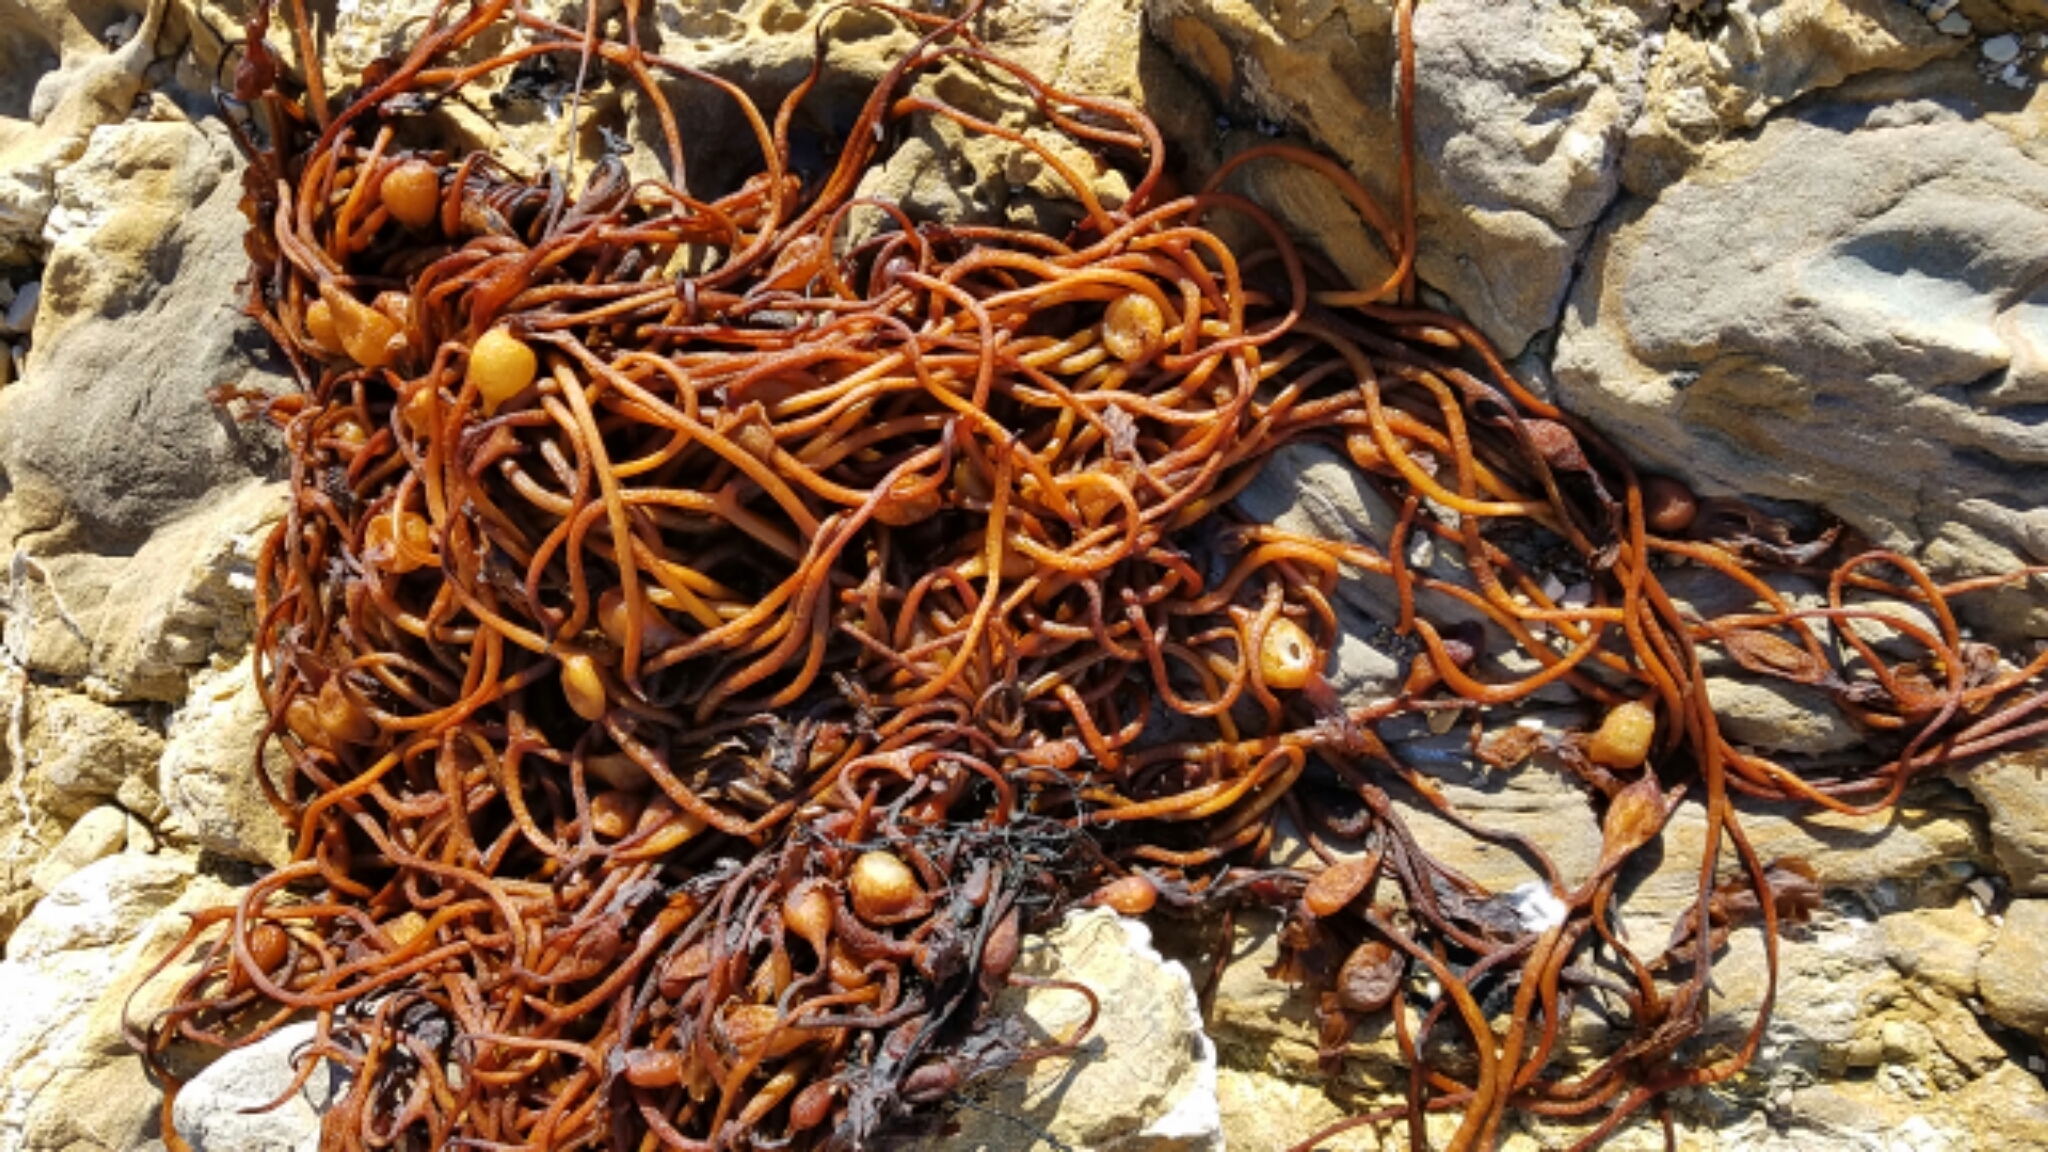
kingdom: Chromista
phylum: Ochrophyta
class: Phaeophyceae
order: Laminariales
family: Laminariaceae
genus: Macrocystis
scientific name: Macrocystis pyrifera
